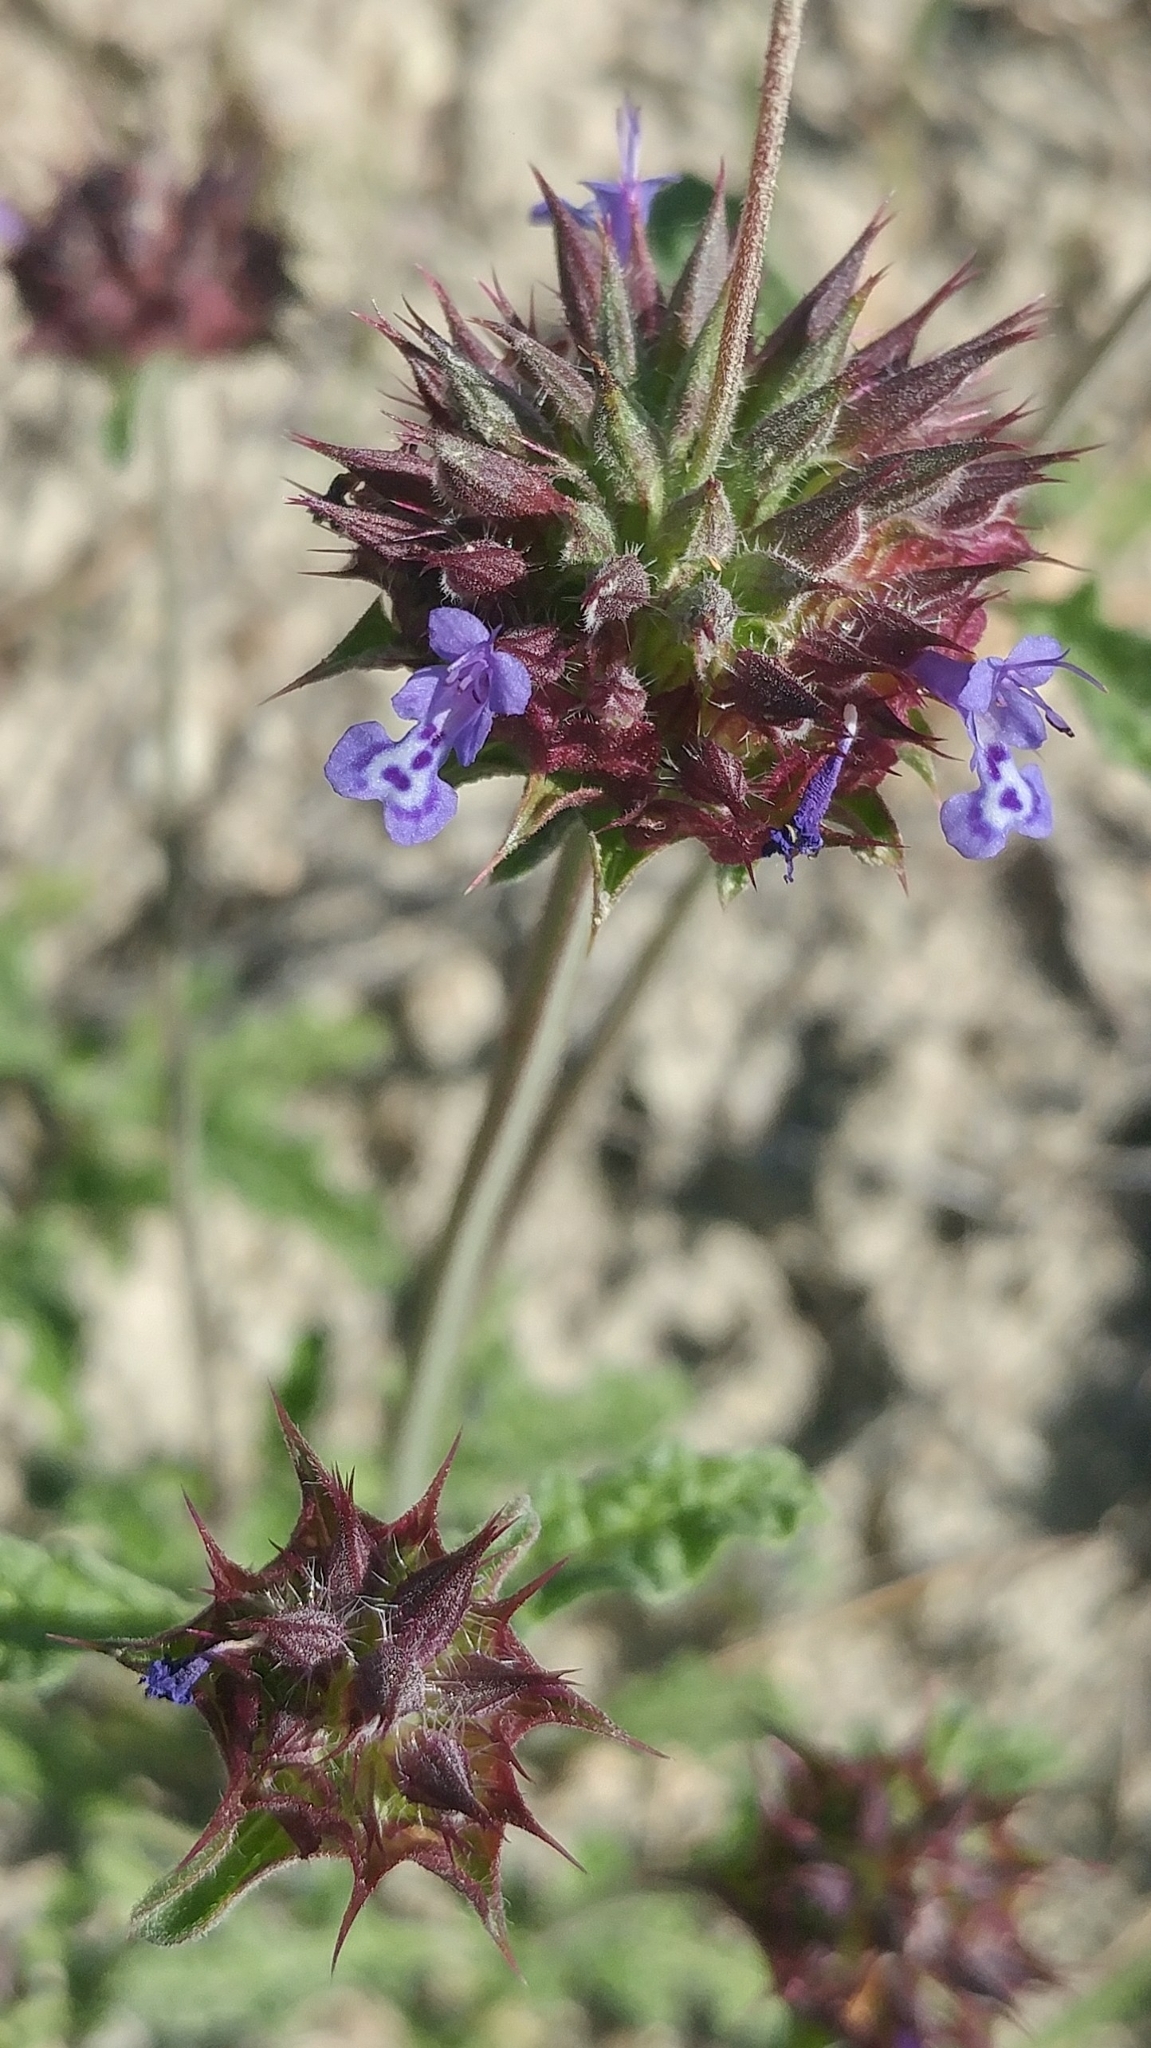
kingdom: Plantae
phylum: Tracheophyta
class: Magnoliopsida
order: Lamiales
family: Lamiaceae
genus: Salvia
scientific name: Salvia columbariae
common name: Chia
